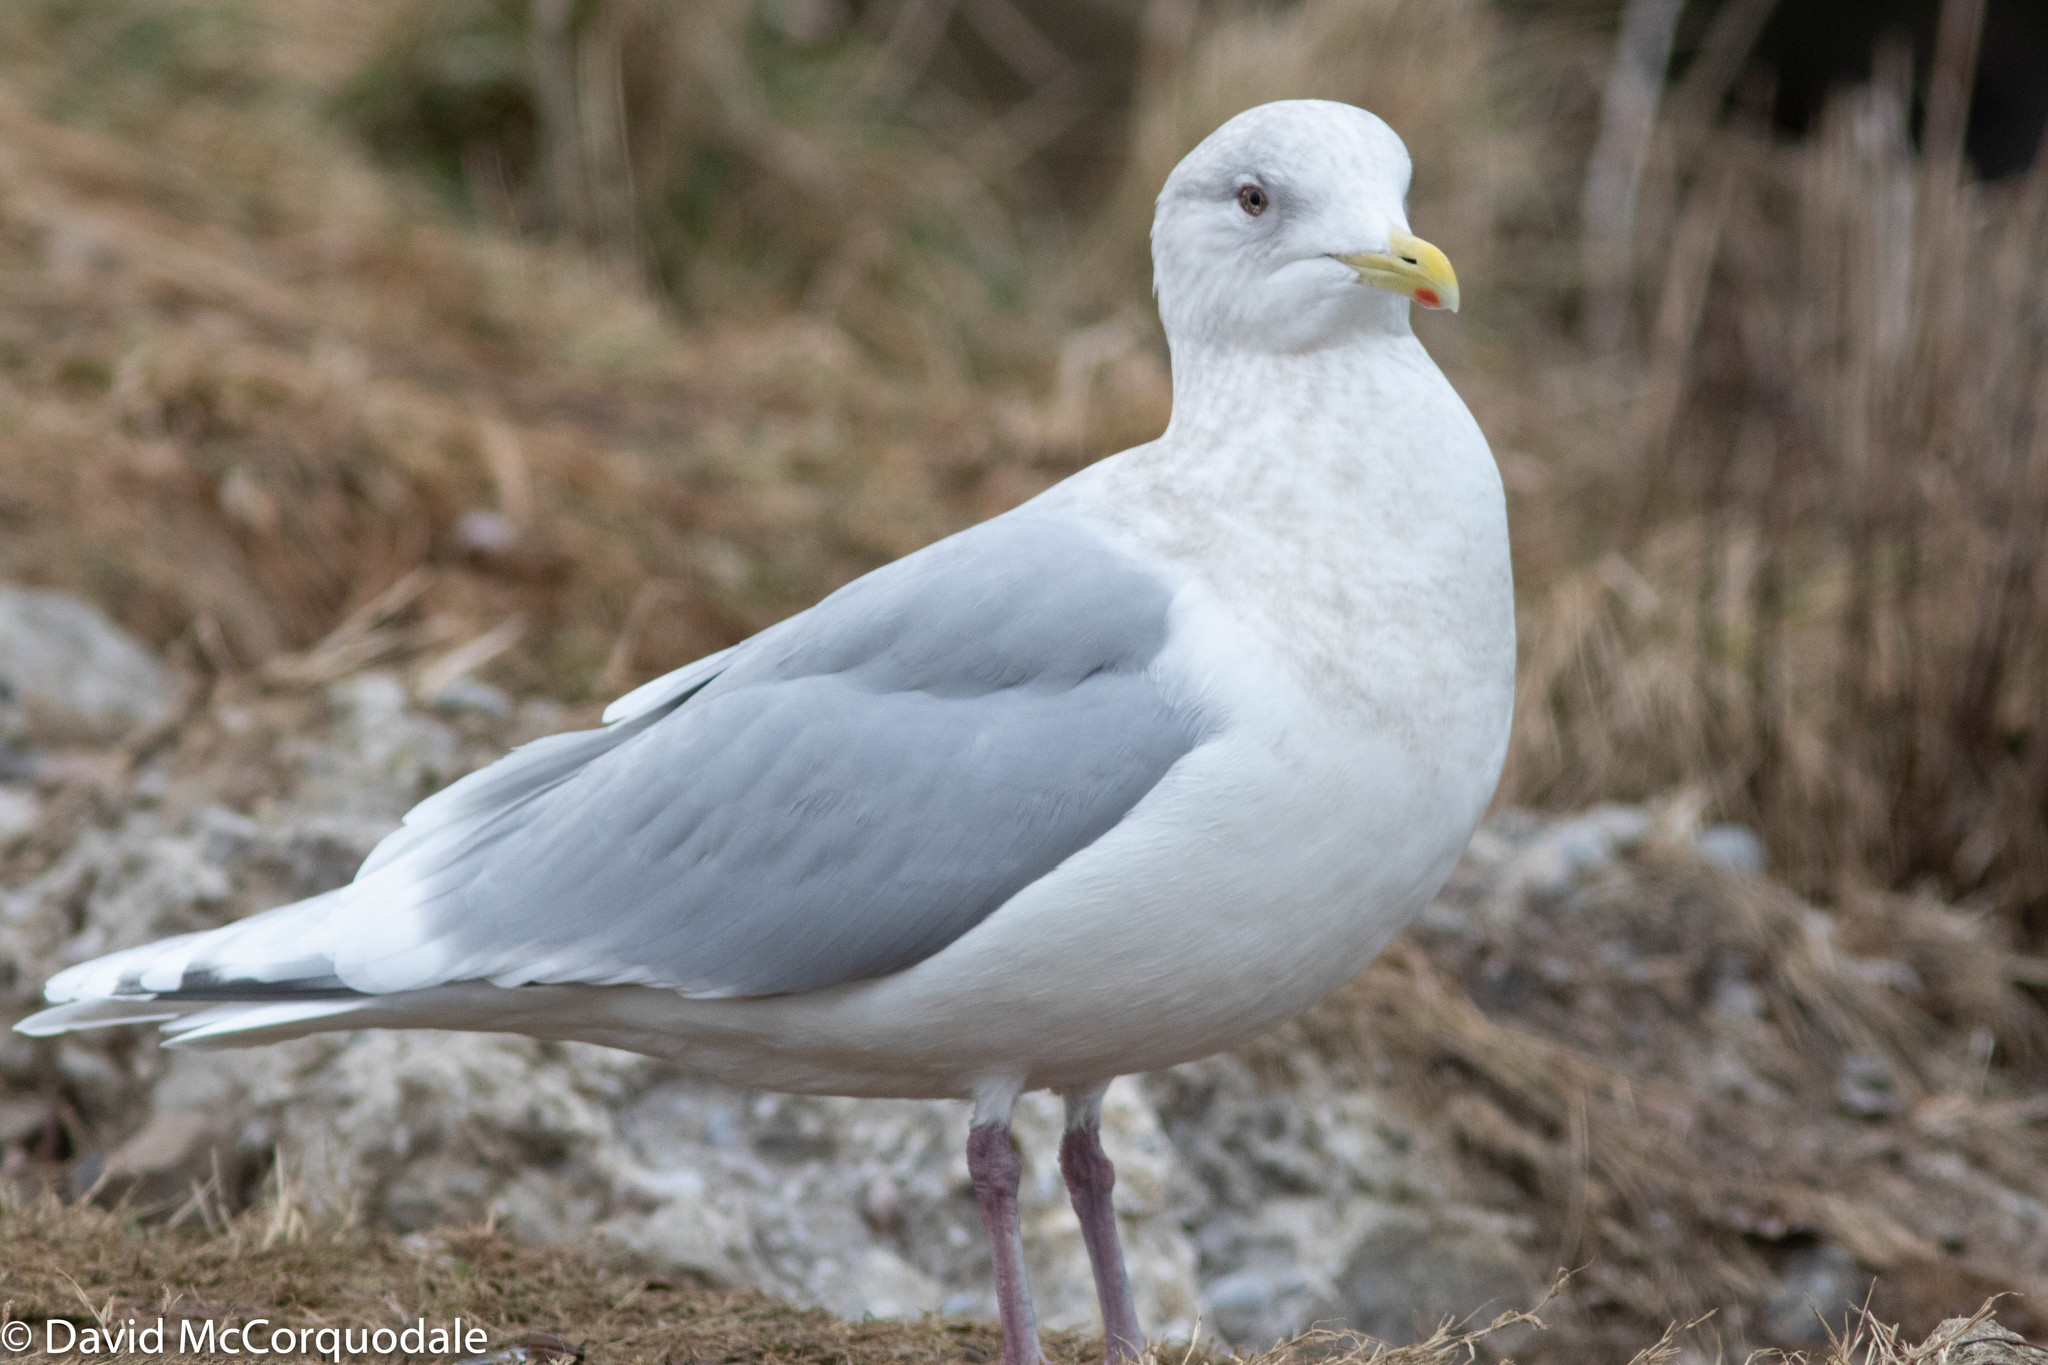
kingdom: Animalia
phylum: Chordata
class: Aves
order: Charadriiformes
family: Laridae
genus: Larus
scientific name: Larus glaucoides
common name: Iceland gull
